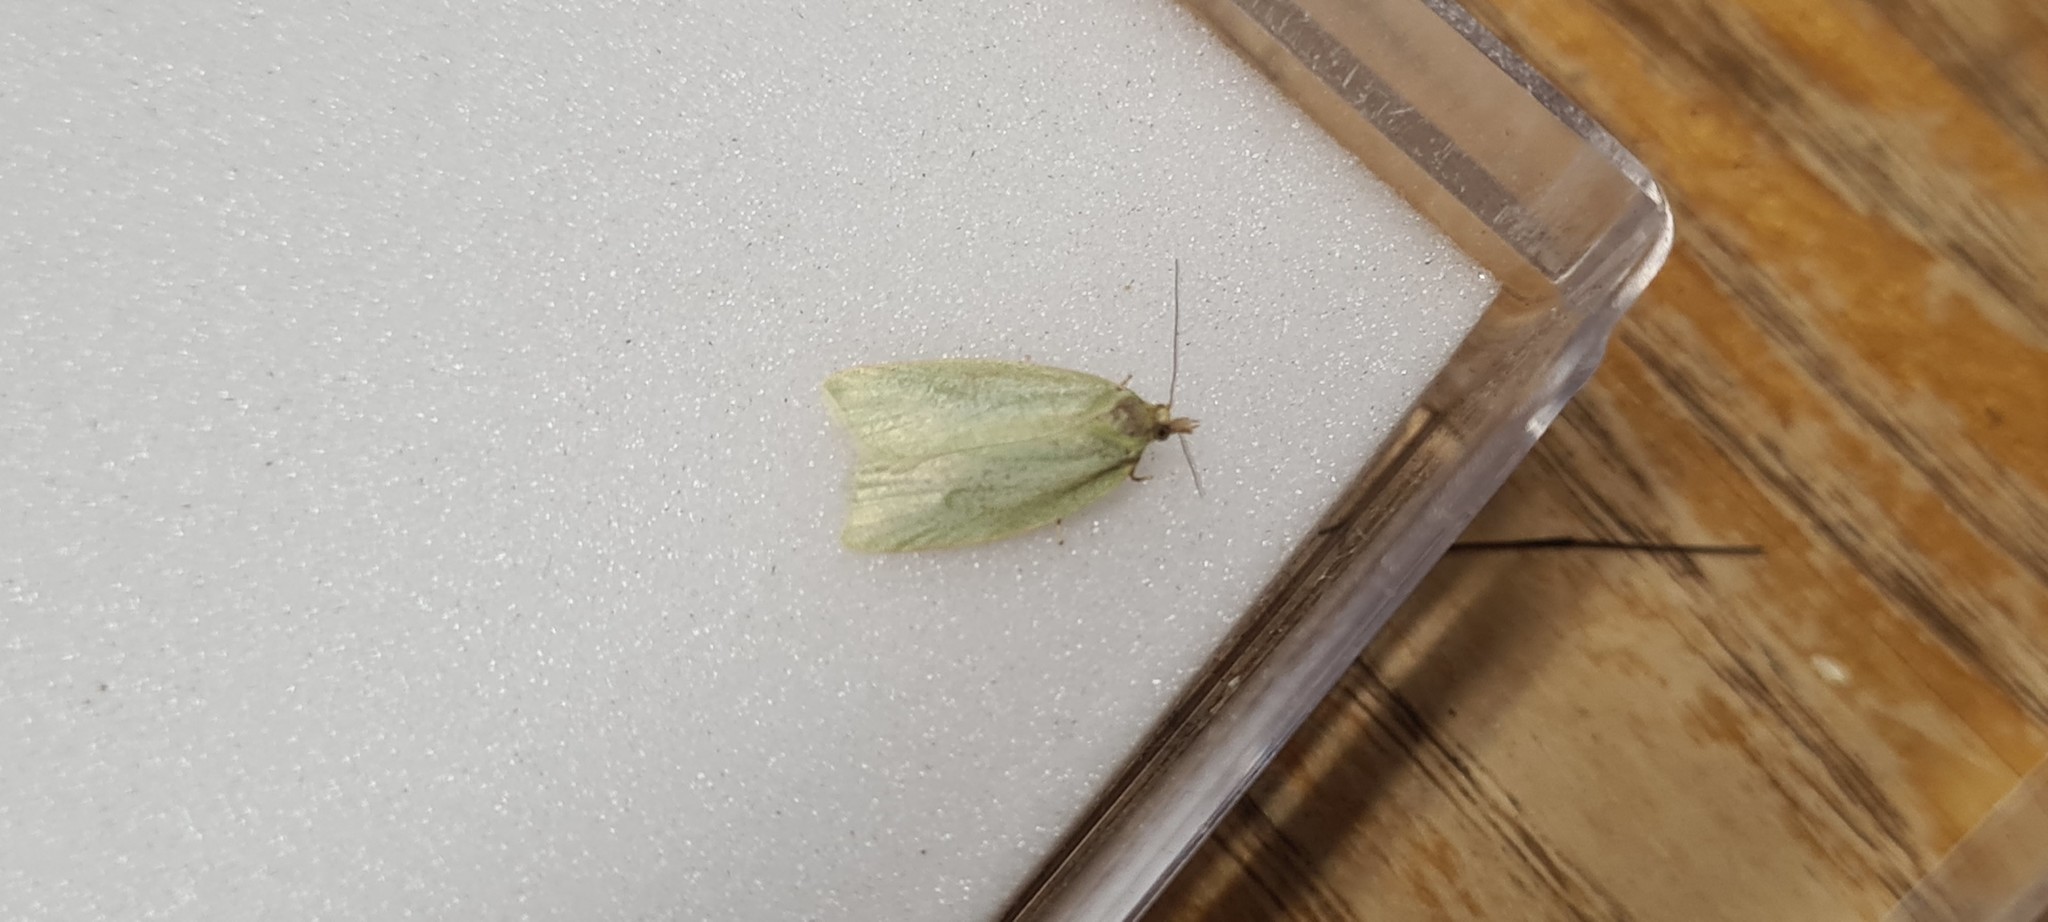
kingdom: Animalia
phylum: Arthropoda
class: Insecta
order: Lepidoptera
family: Tortricidae
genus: Tortrix
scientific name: Tortrix viridana
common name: Green oak tortrix
